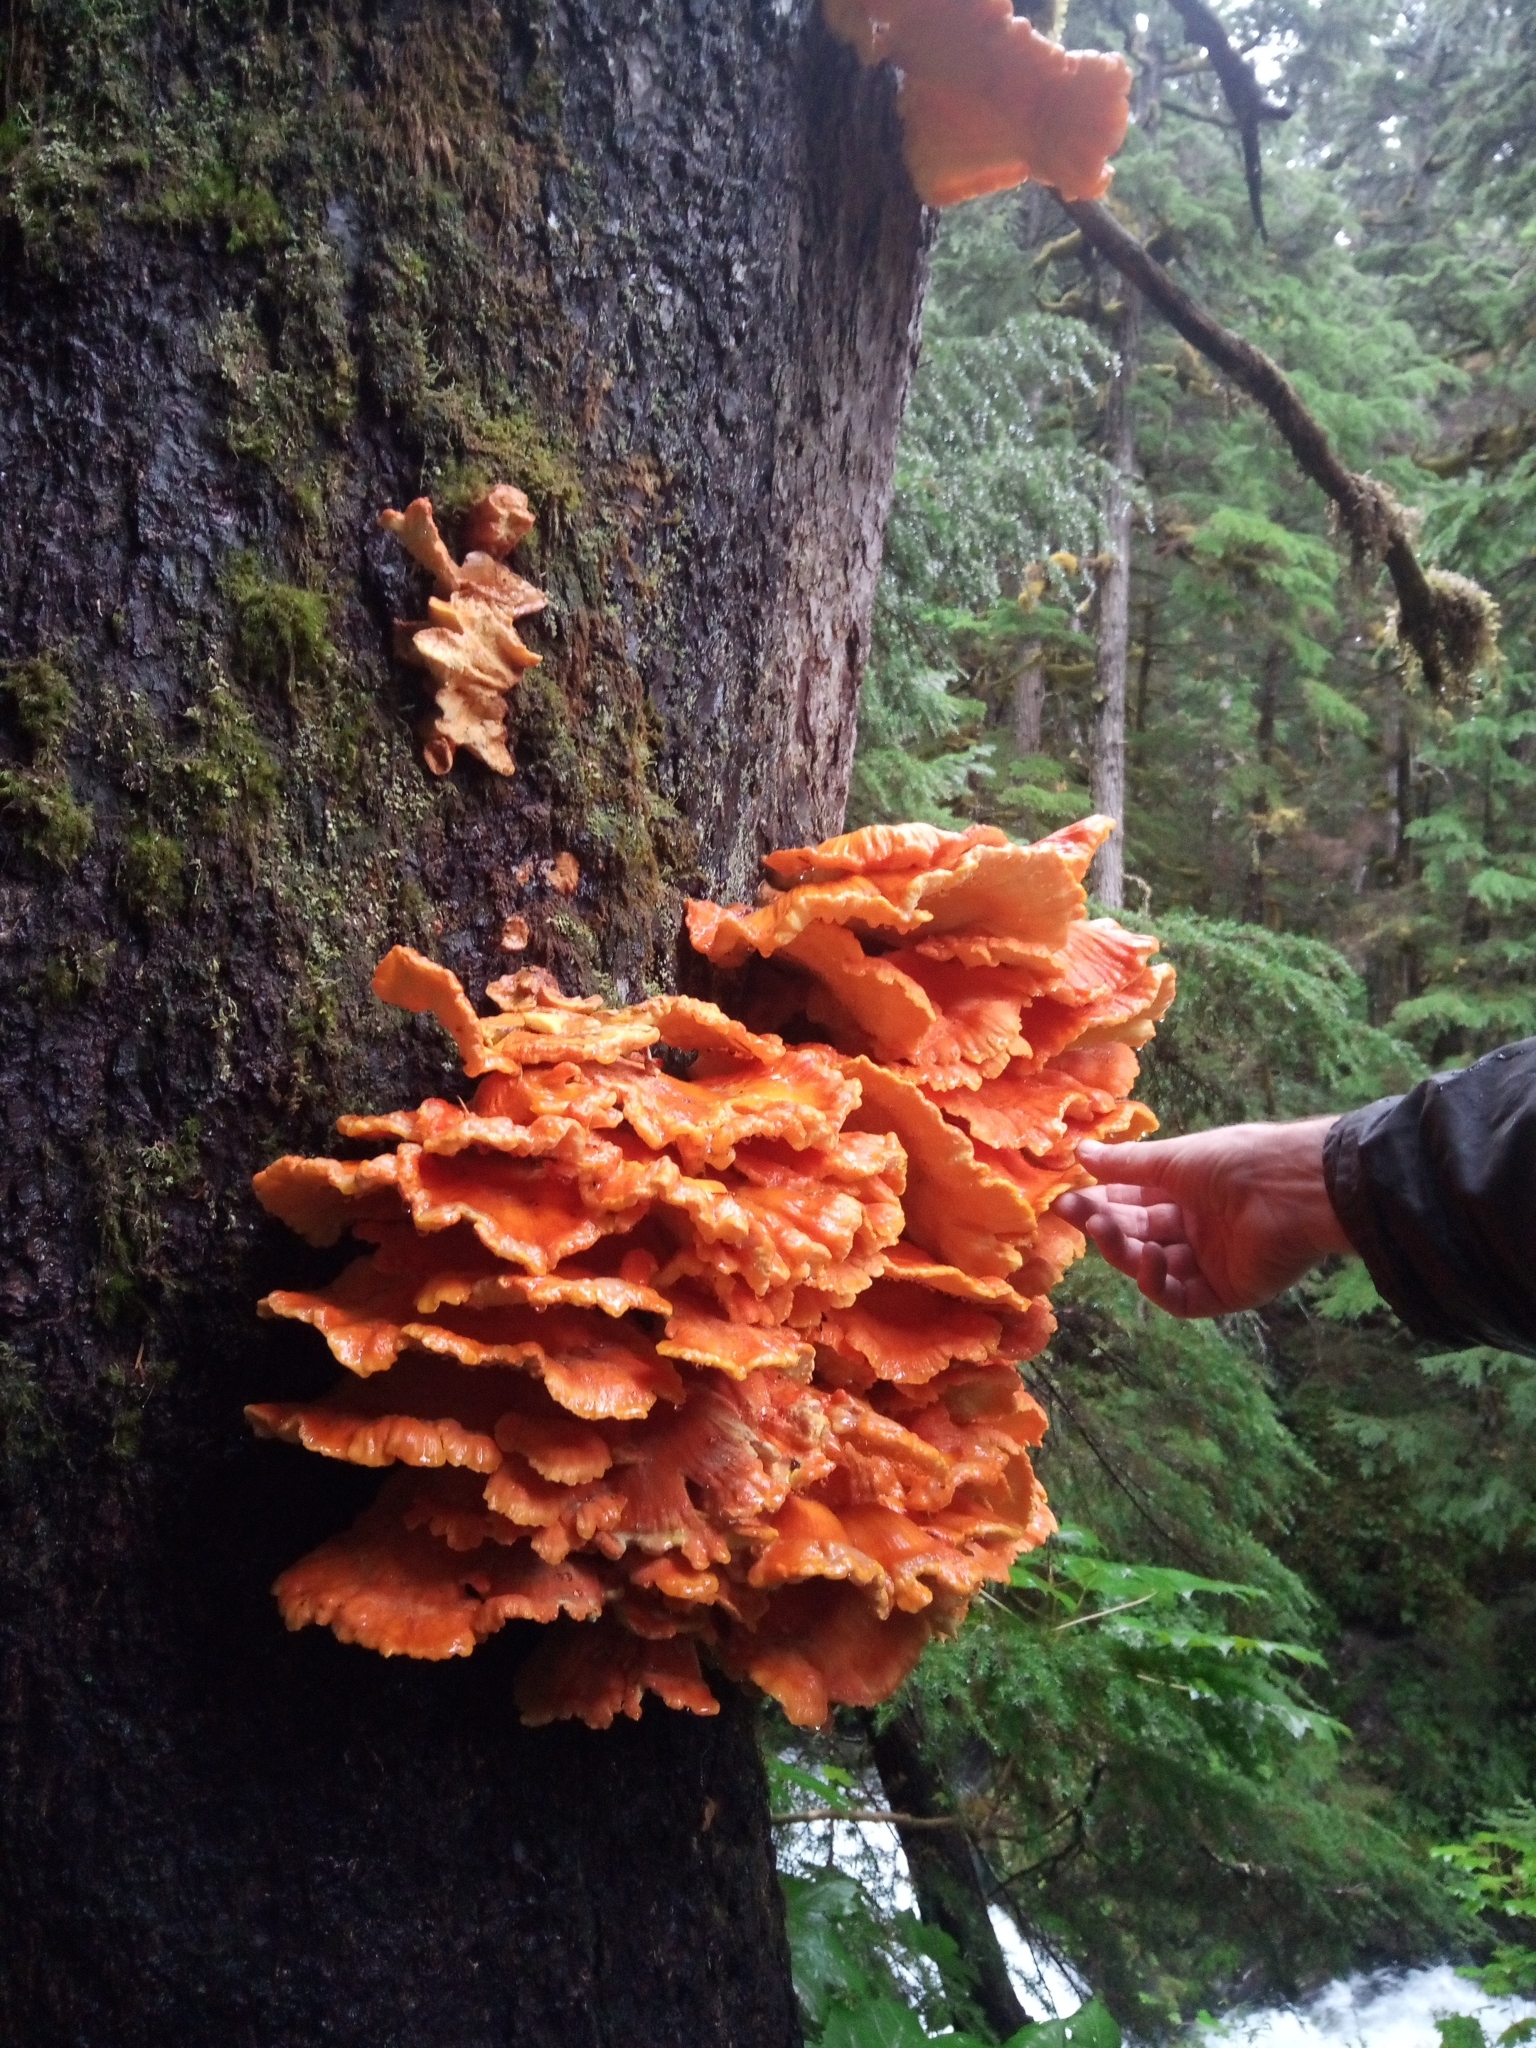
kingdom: Fungi
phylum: Basidiomycota
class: Agaricomycetes
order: Polyporales
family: Laetiporaceae
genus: Laetiporus
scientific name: Laetiporus conifericola
